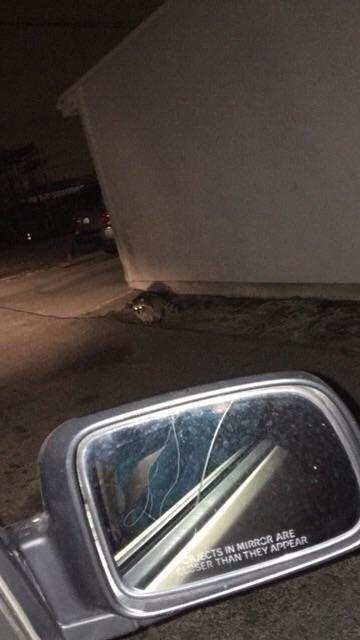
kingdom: Animalia
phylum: Chordata
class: Mammalia
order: Carnivora
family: Procyonidae
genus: Procyon
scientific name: Procyon lotor
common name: Raccoon
